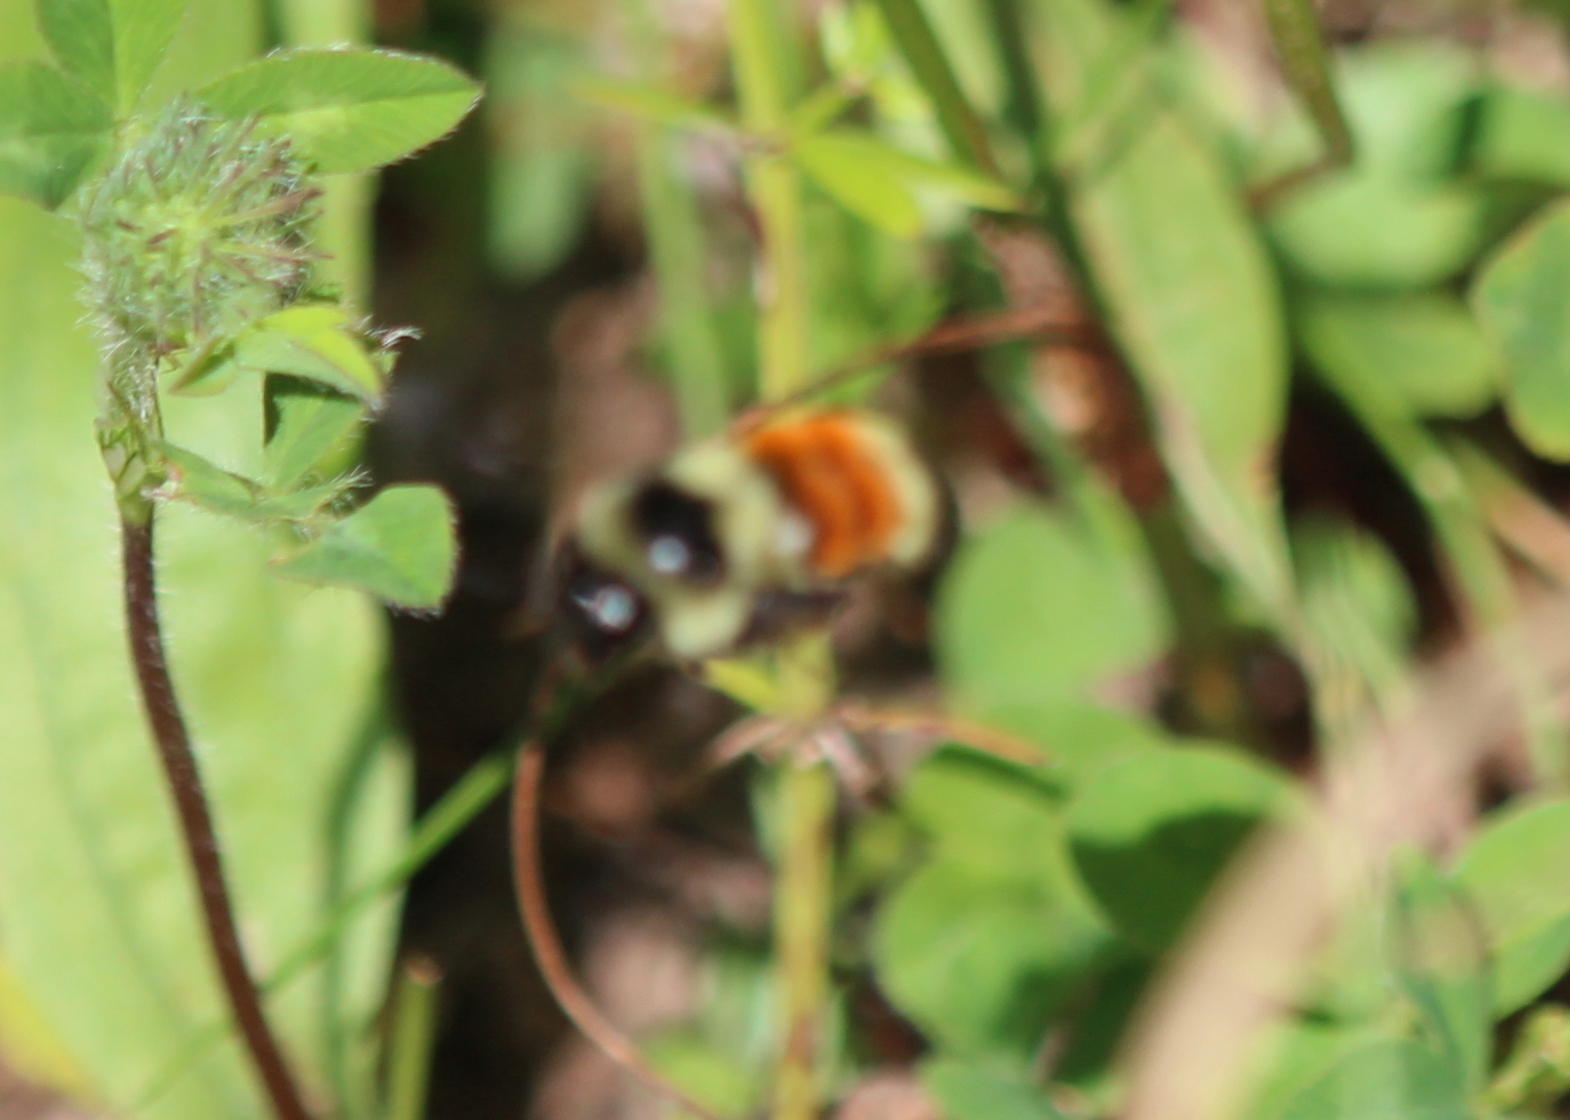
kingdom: Animalia
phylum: Arthropoda
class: Insecta
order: Hymenoptera
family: Apidae
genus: Bombus
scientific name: Bombus ternarius
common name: Tri-colored bumble bee
